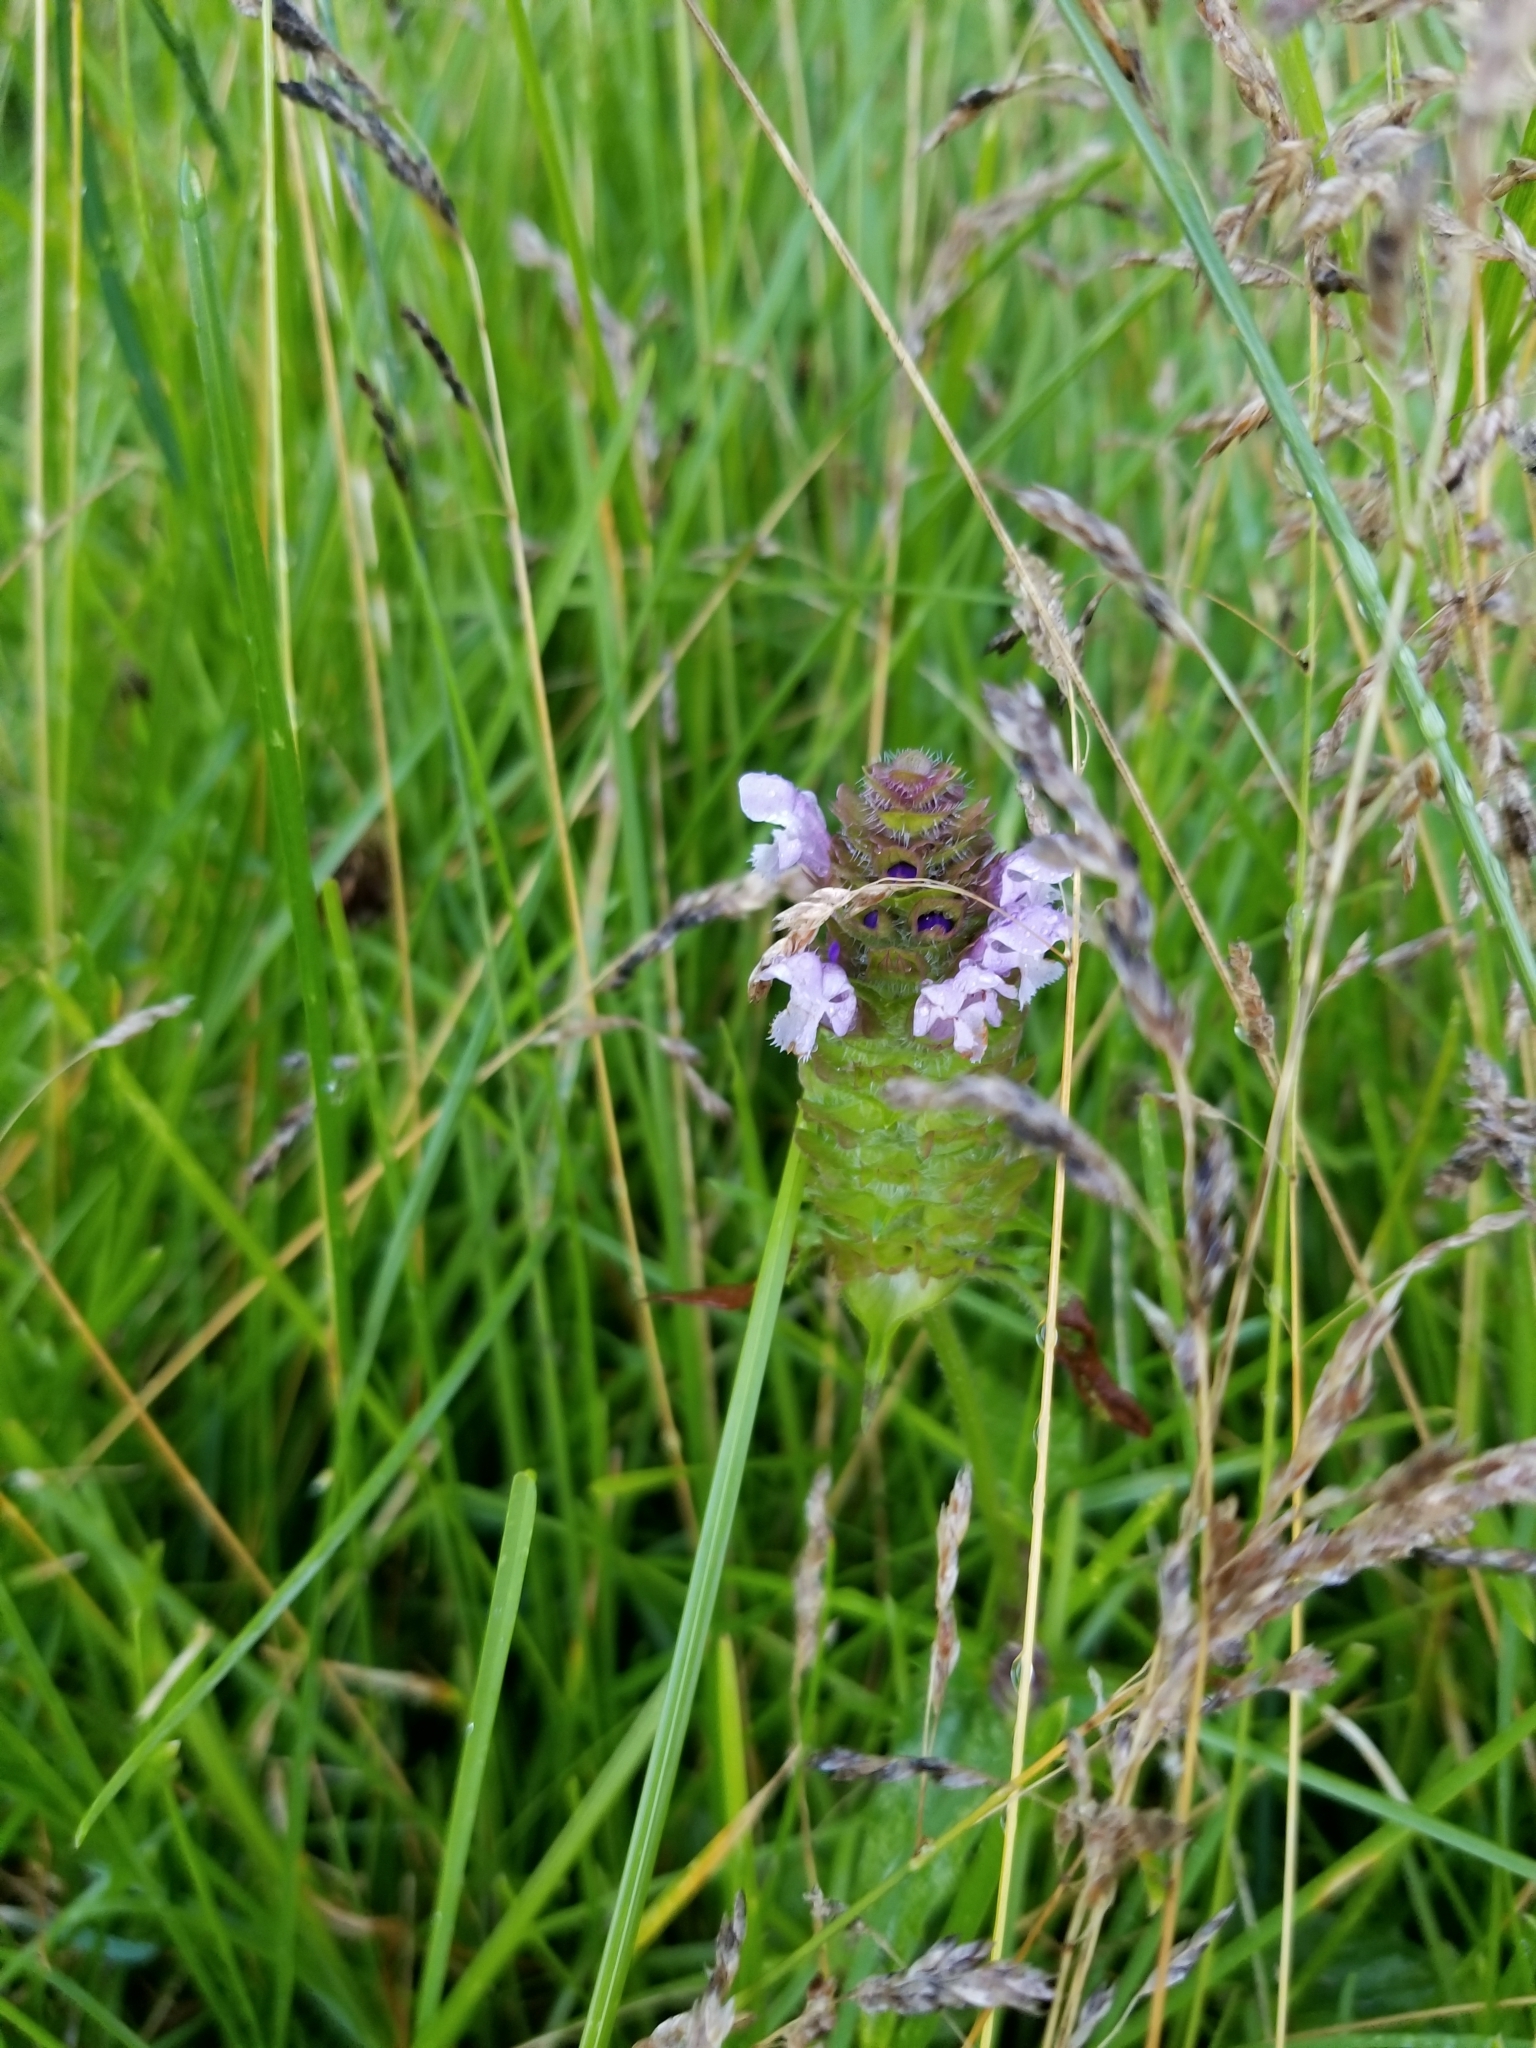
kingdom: Plantae
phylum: Tracheophyta
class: Magnoliopsida
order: Lamiales
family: Lamiaceae
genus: Prunella
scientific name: Prunella vulgaris
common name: Heal-all
